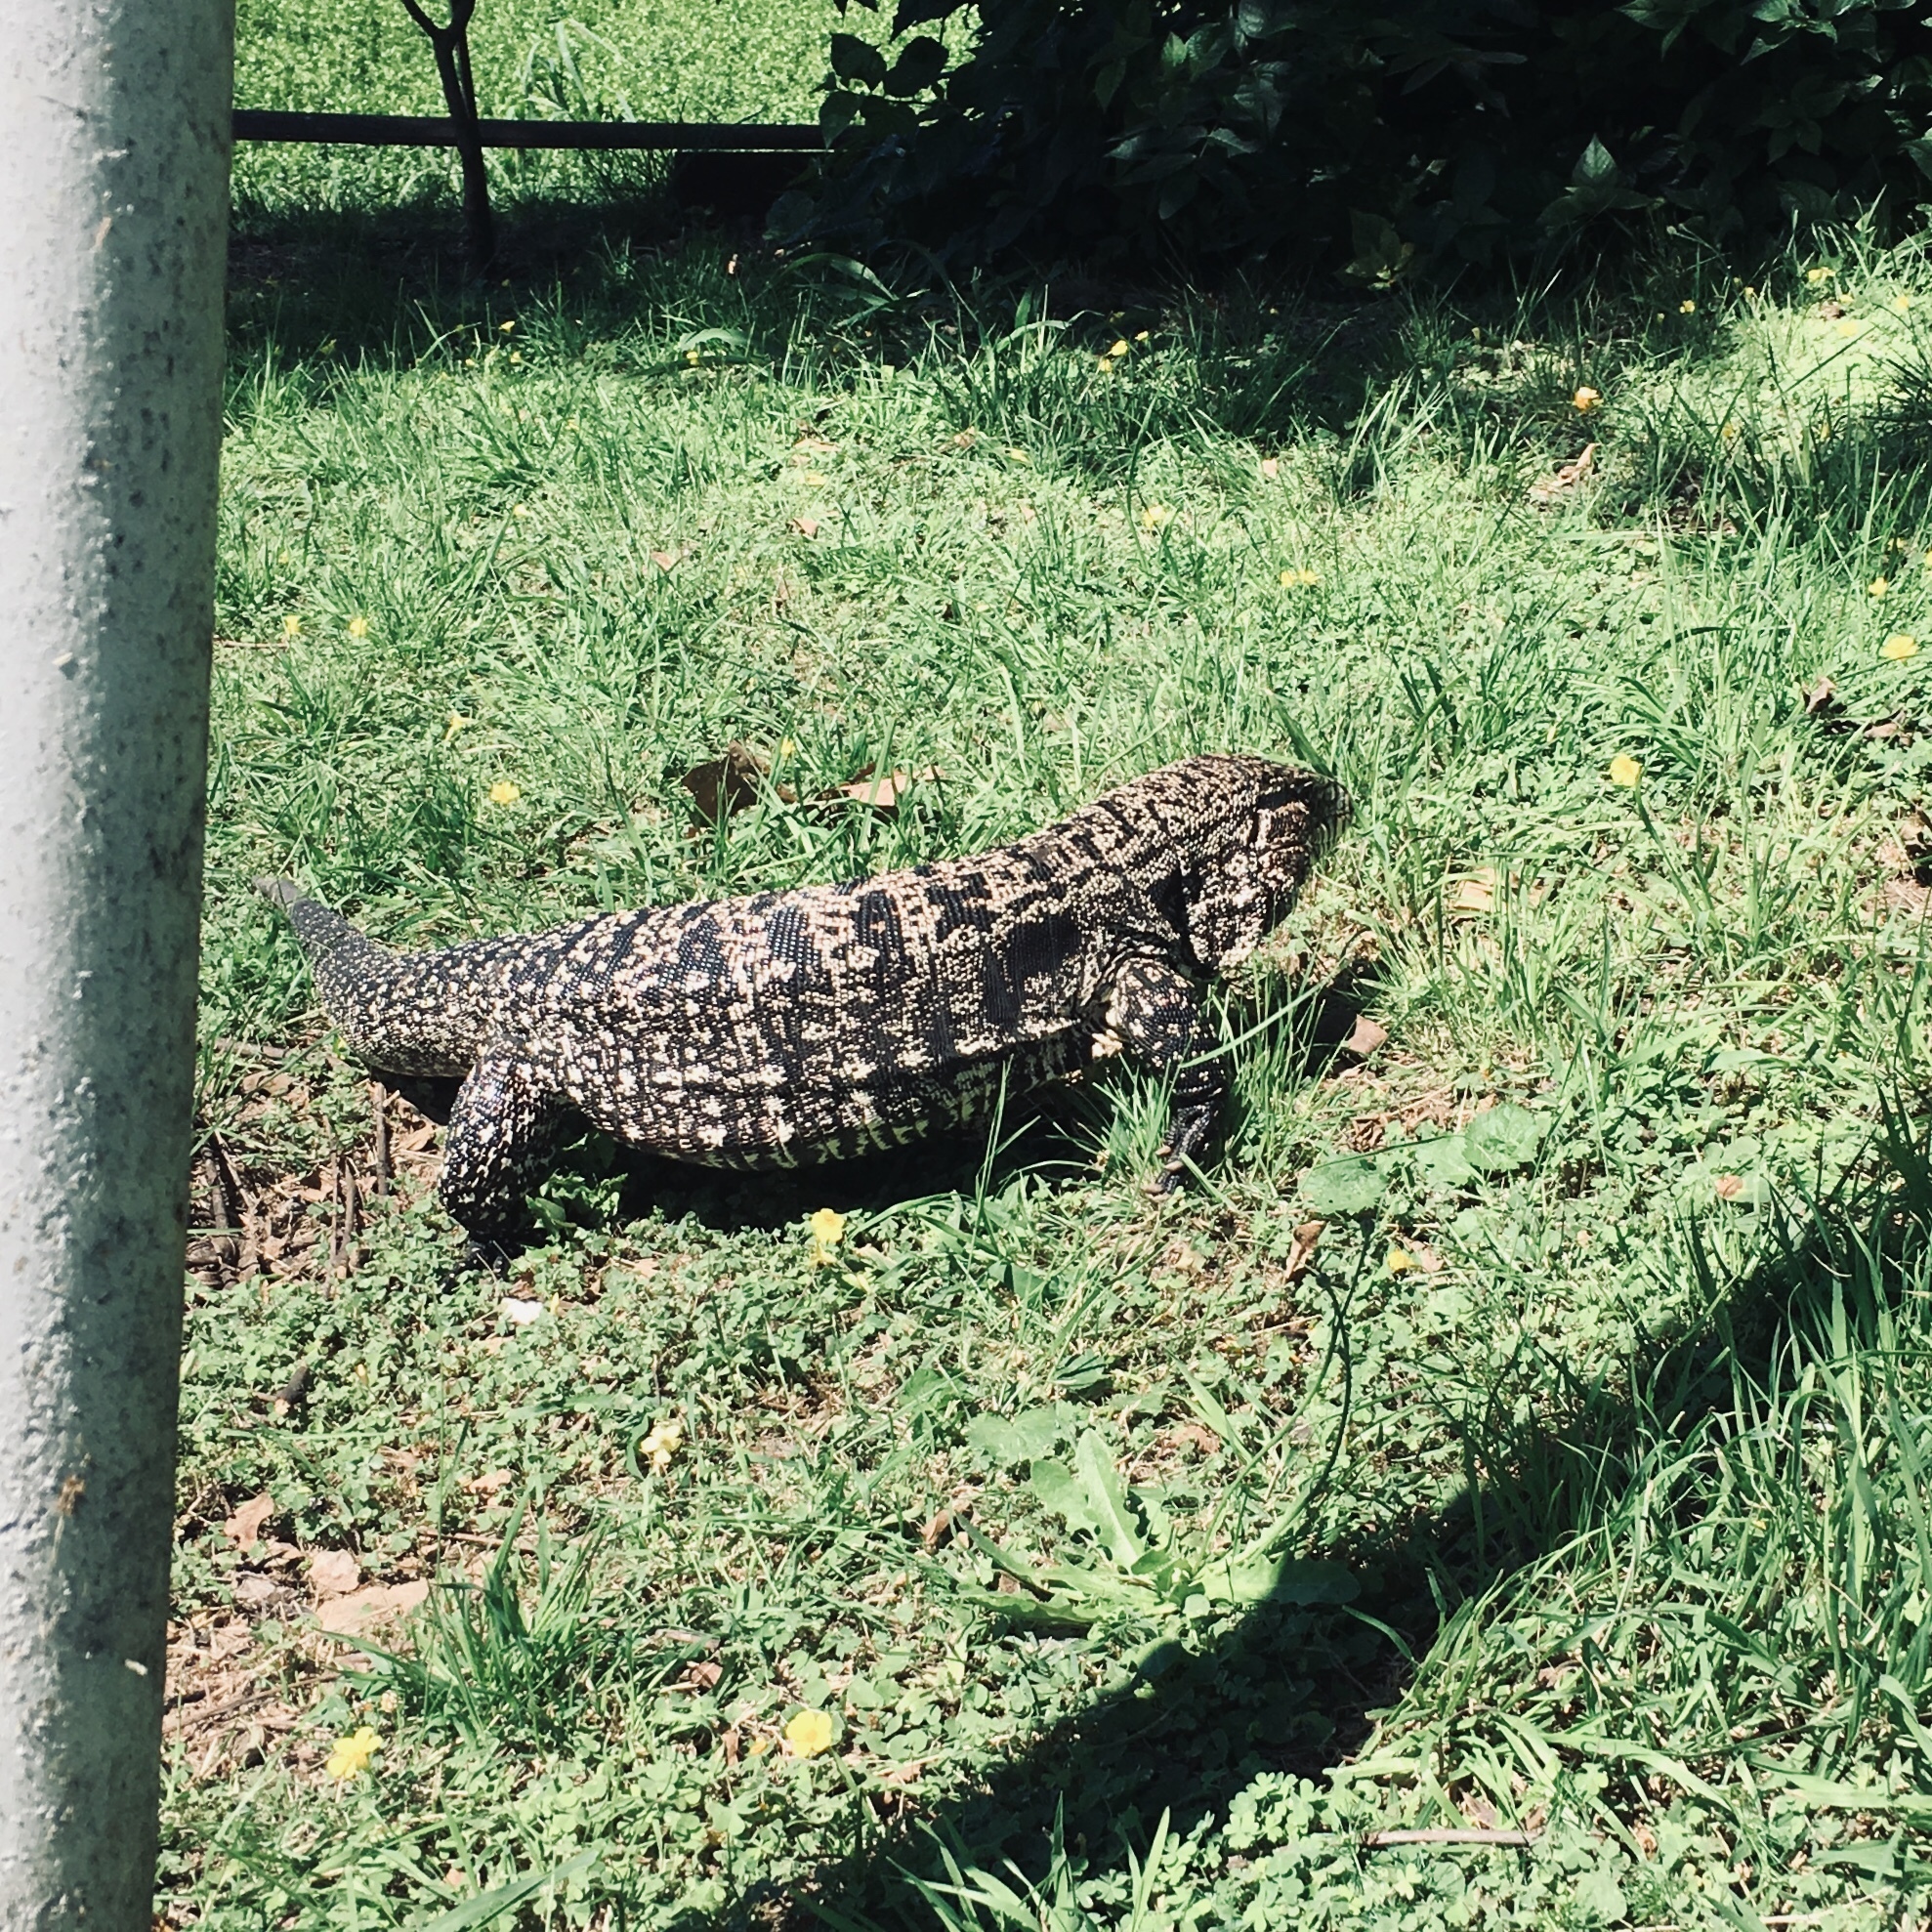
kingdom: Animalia
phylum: Chordata
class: Squamata
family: Teiidae
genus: Salvator
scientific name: Salvator merianae
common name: Argentine black and white tegu
